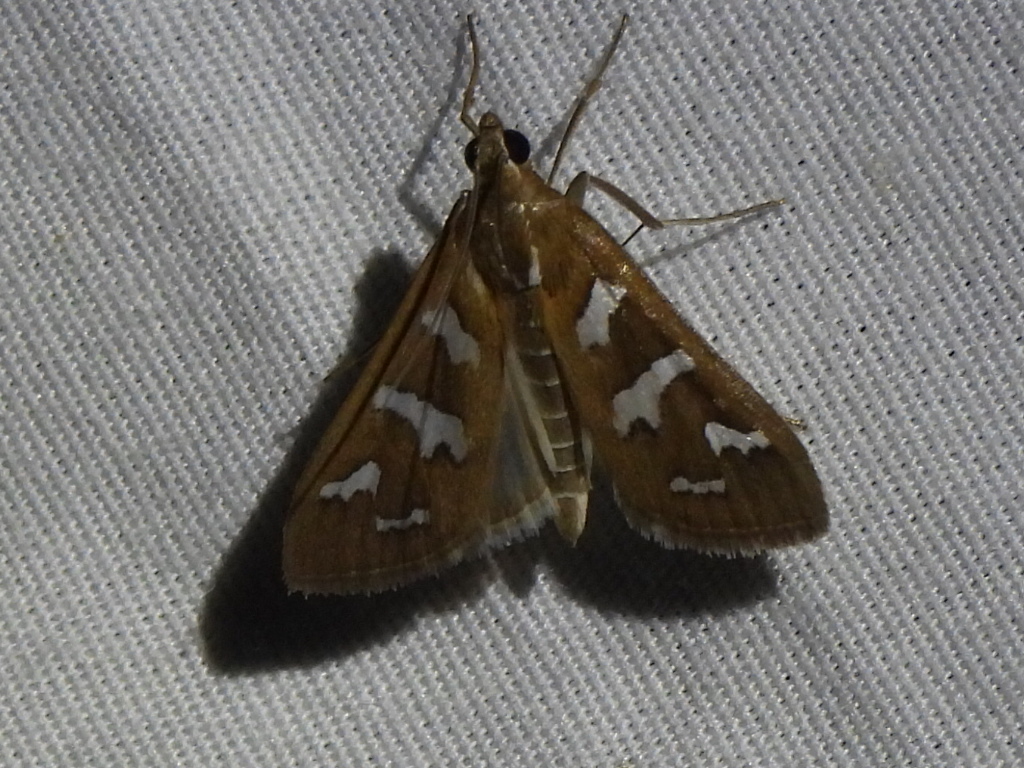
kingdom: Animalia
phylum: Arthropoda
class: Insecta
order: Lepidoptera
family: Crambidae
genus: Diastictis
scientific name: Diastictis fracturalis
